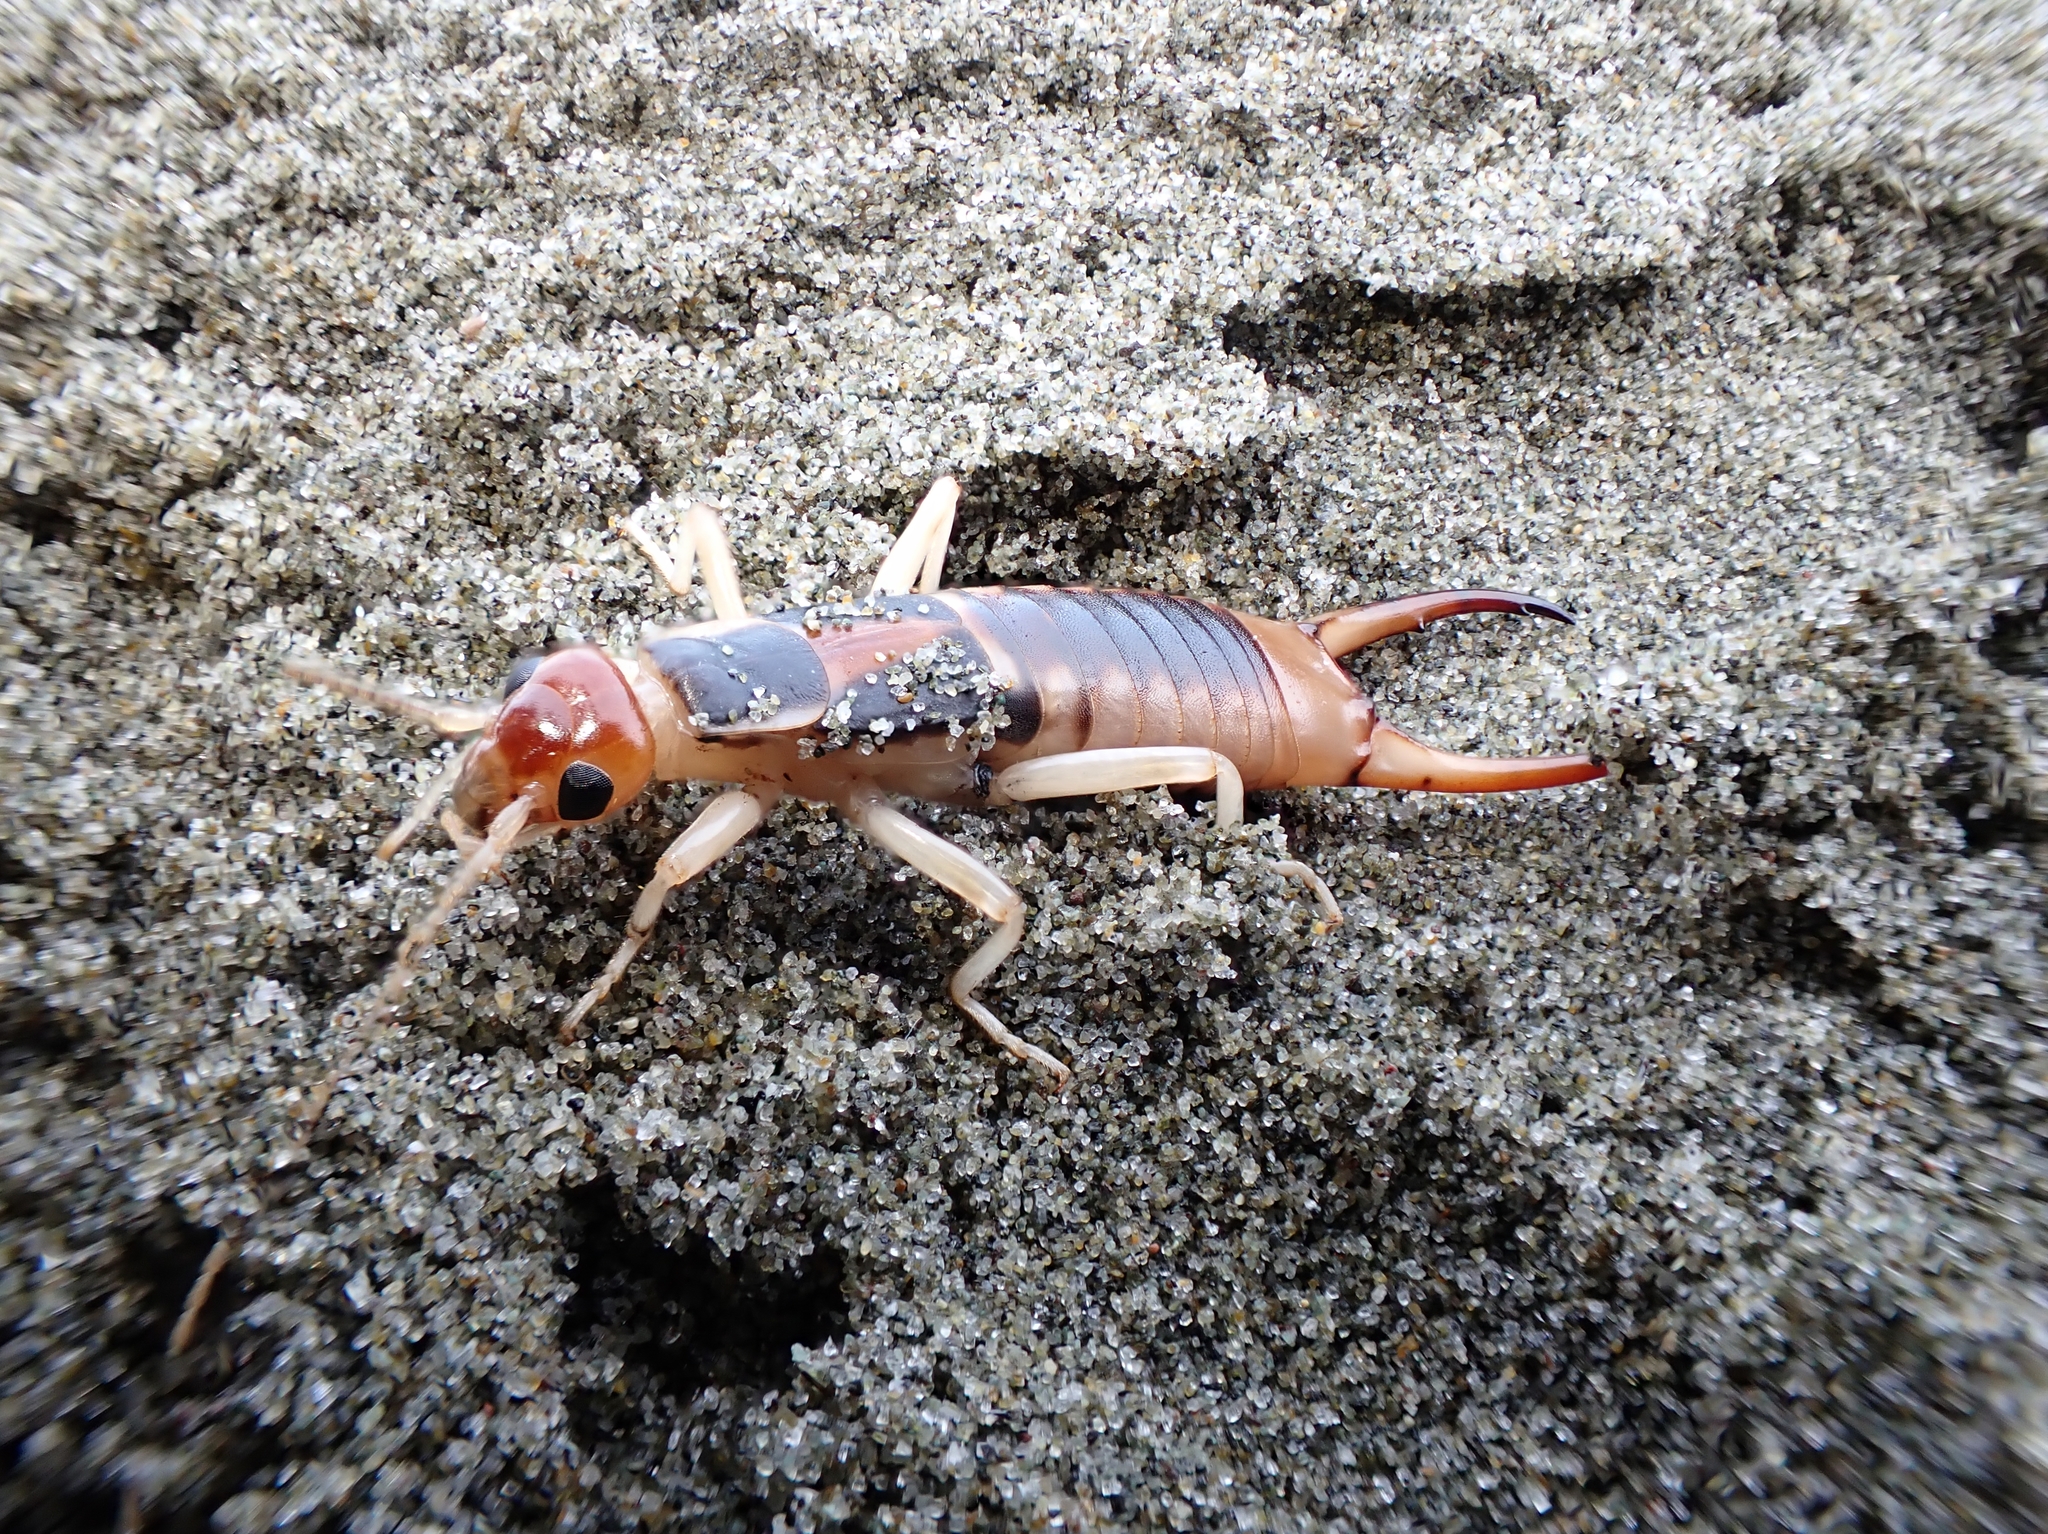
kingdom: Animalia
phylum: Arthropoda
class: Insecta
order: Dermaptera
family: Anisolabididae
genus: Anisolabis
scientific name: Anisolabis littorea
